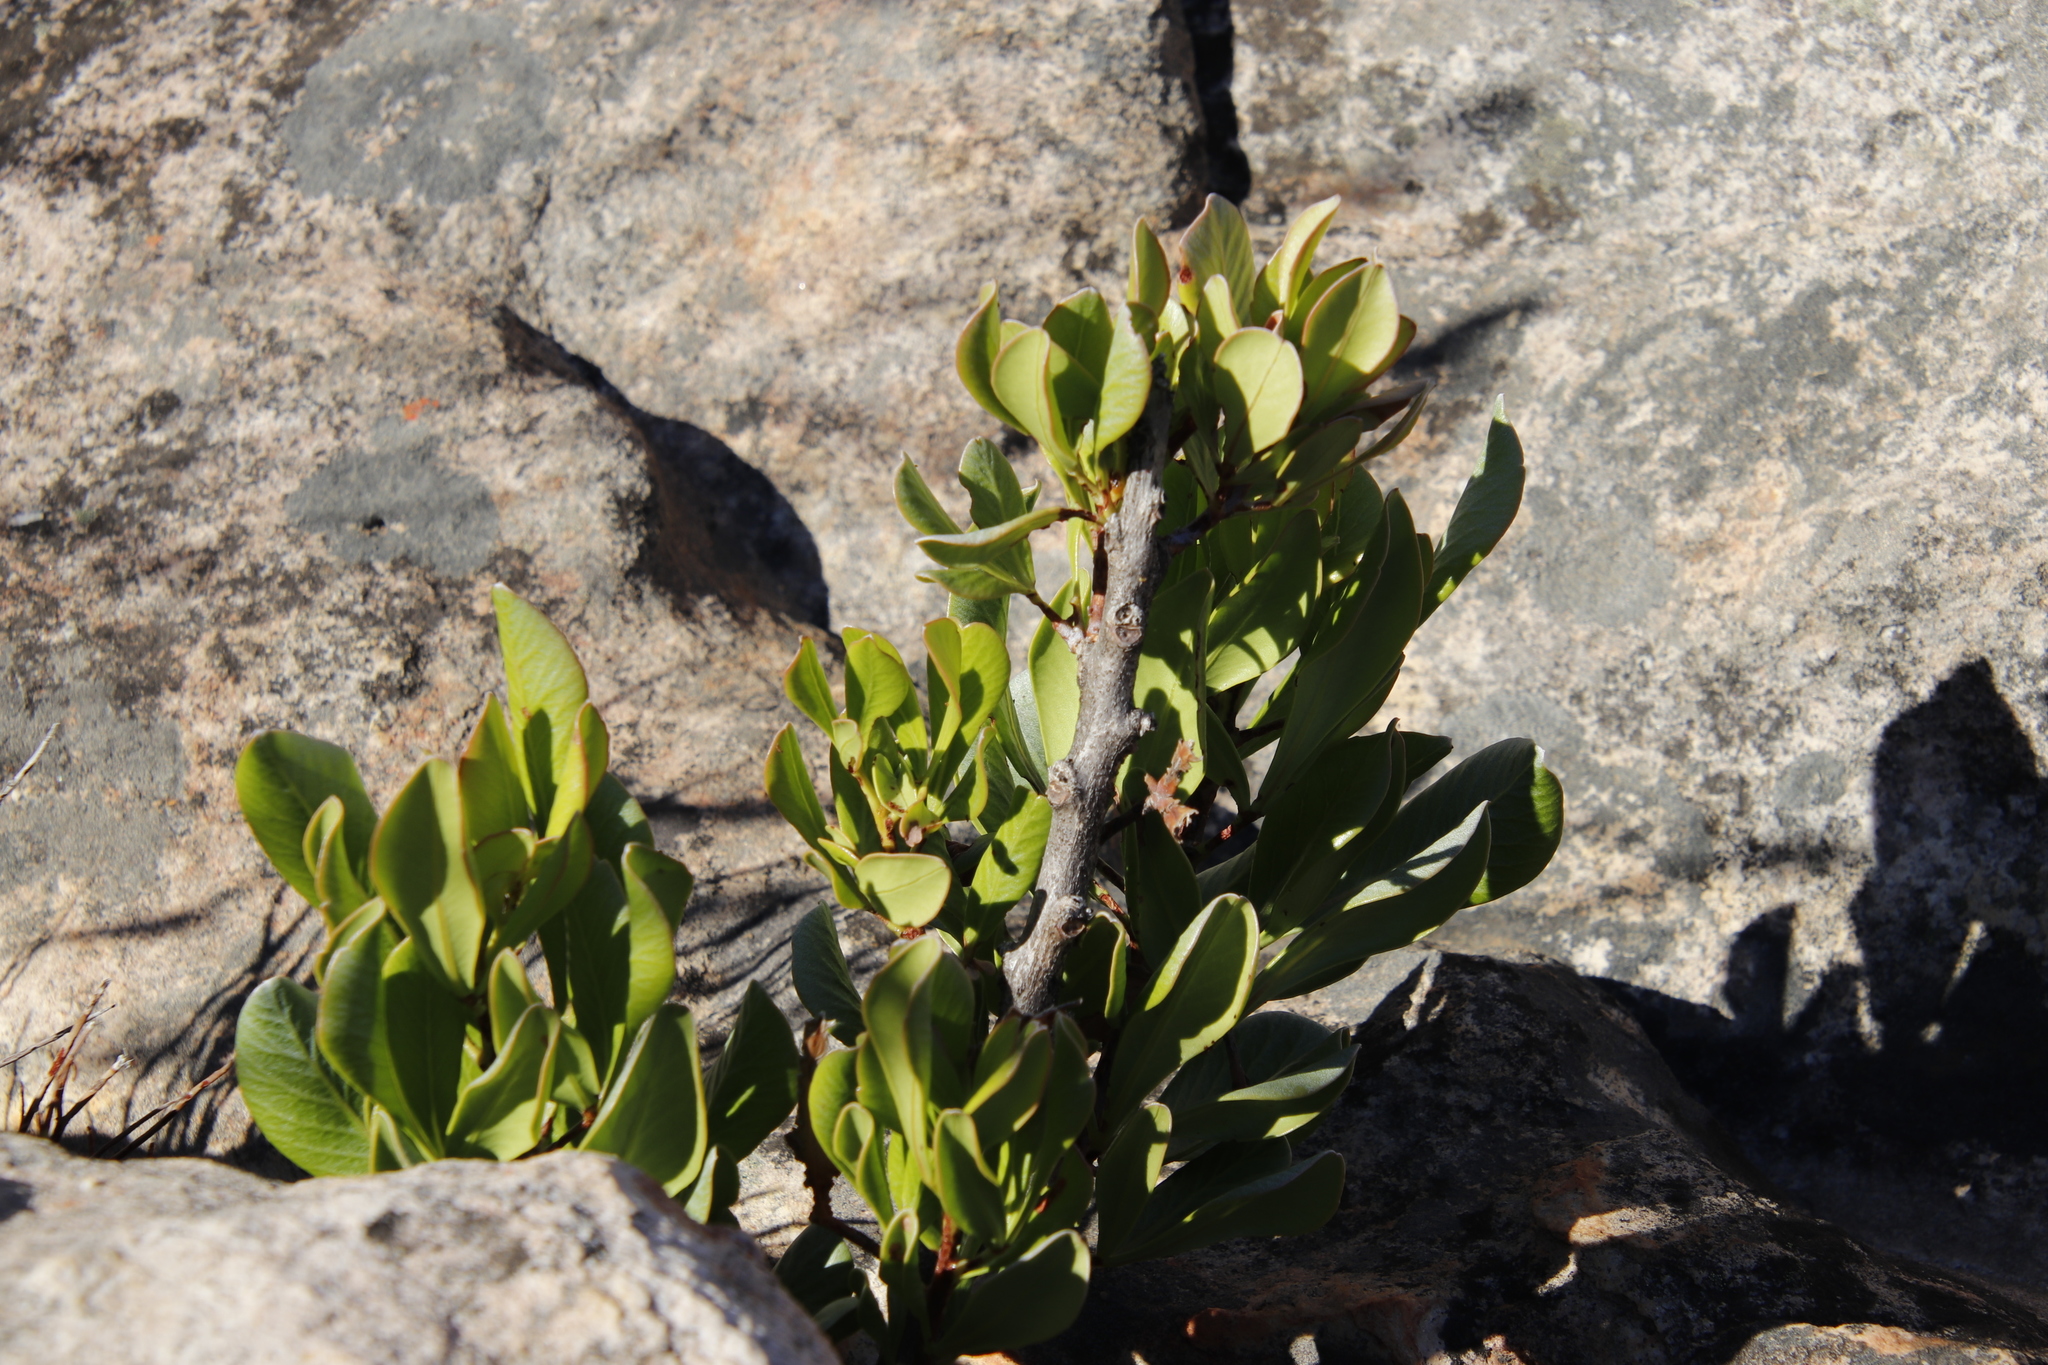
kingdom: Plantae
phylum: Tracheophyta
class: Magnoliopsida
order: Sapindales
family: Anacardiaceae
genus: Searsia
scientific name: Searsia scytophylla
